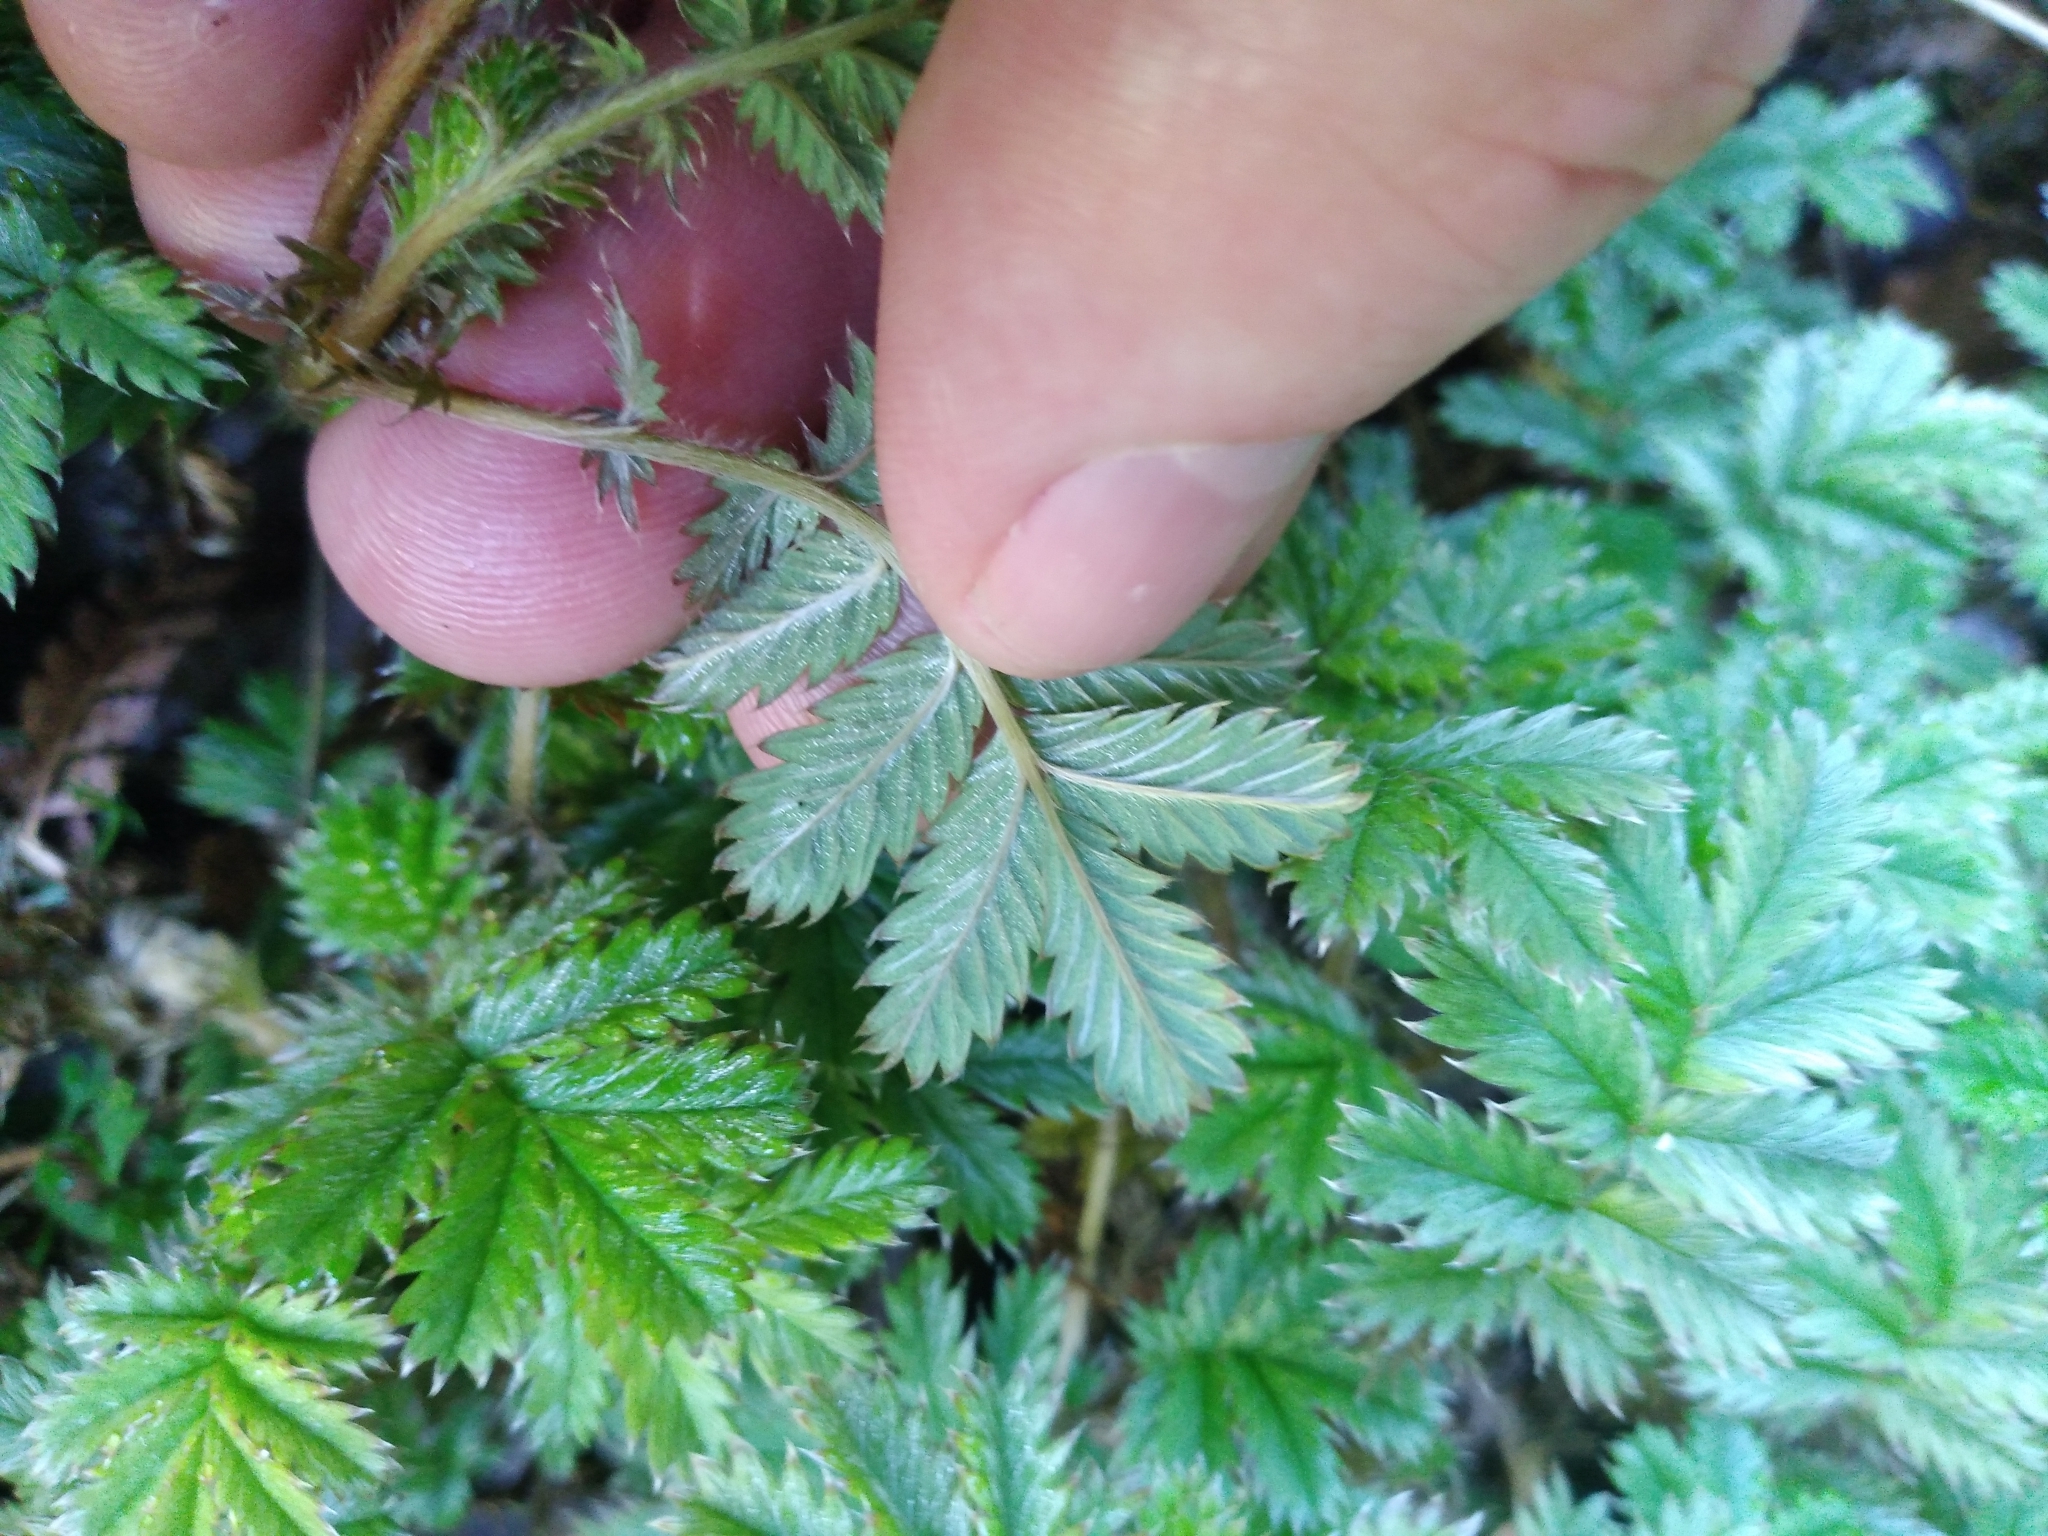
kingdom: Plantae
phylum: Tracheophyta
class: Magnoliopsida
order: Rosales
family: Rosaceae
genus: Acaena
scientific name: Acaena anserinifolia
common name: Bronze pirri-pirri-bur
